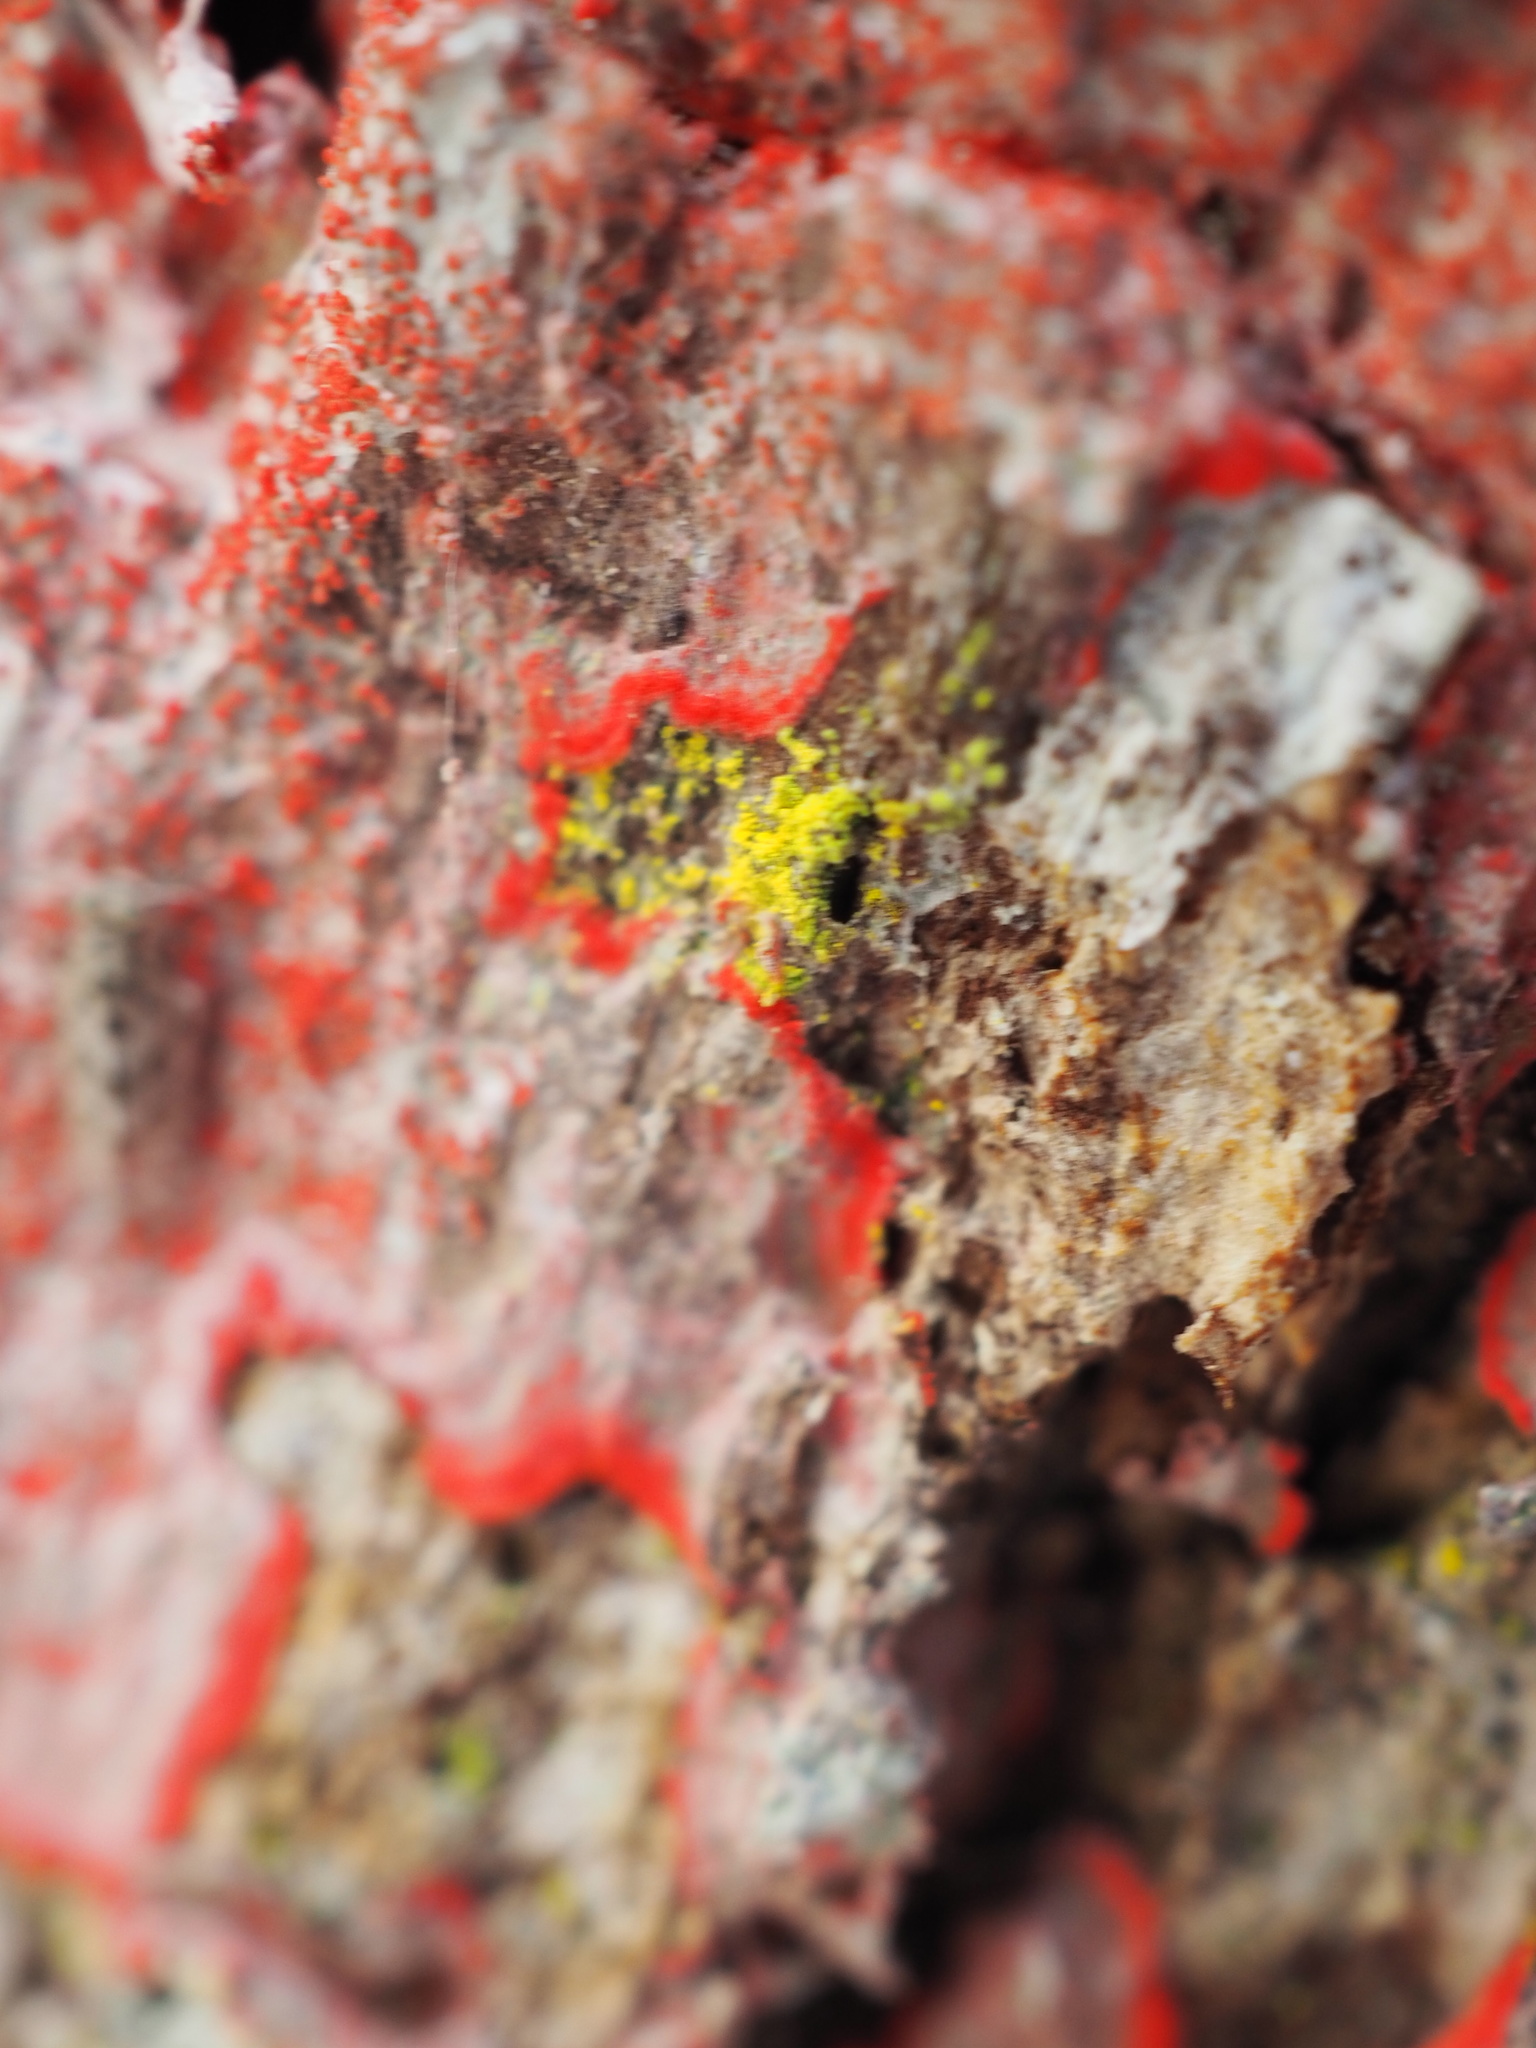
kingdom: Fungi
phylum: Ascomycota
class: Arthoniomycetes
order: Arthoniales
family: Arthoniaceae
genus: Herpothallon
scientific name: Herpothallon rubrocinctum
